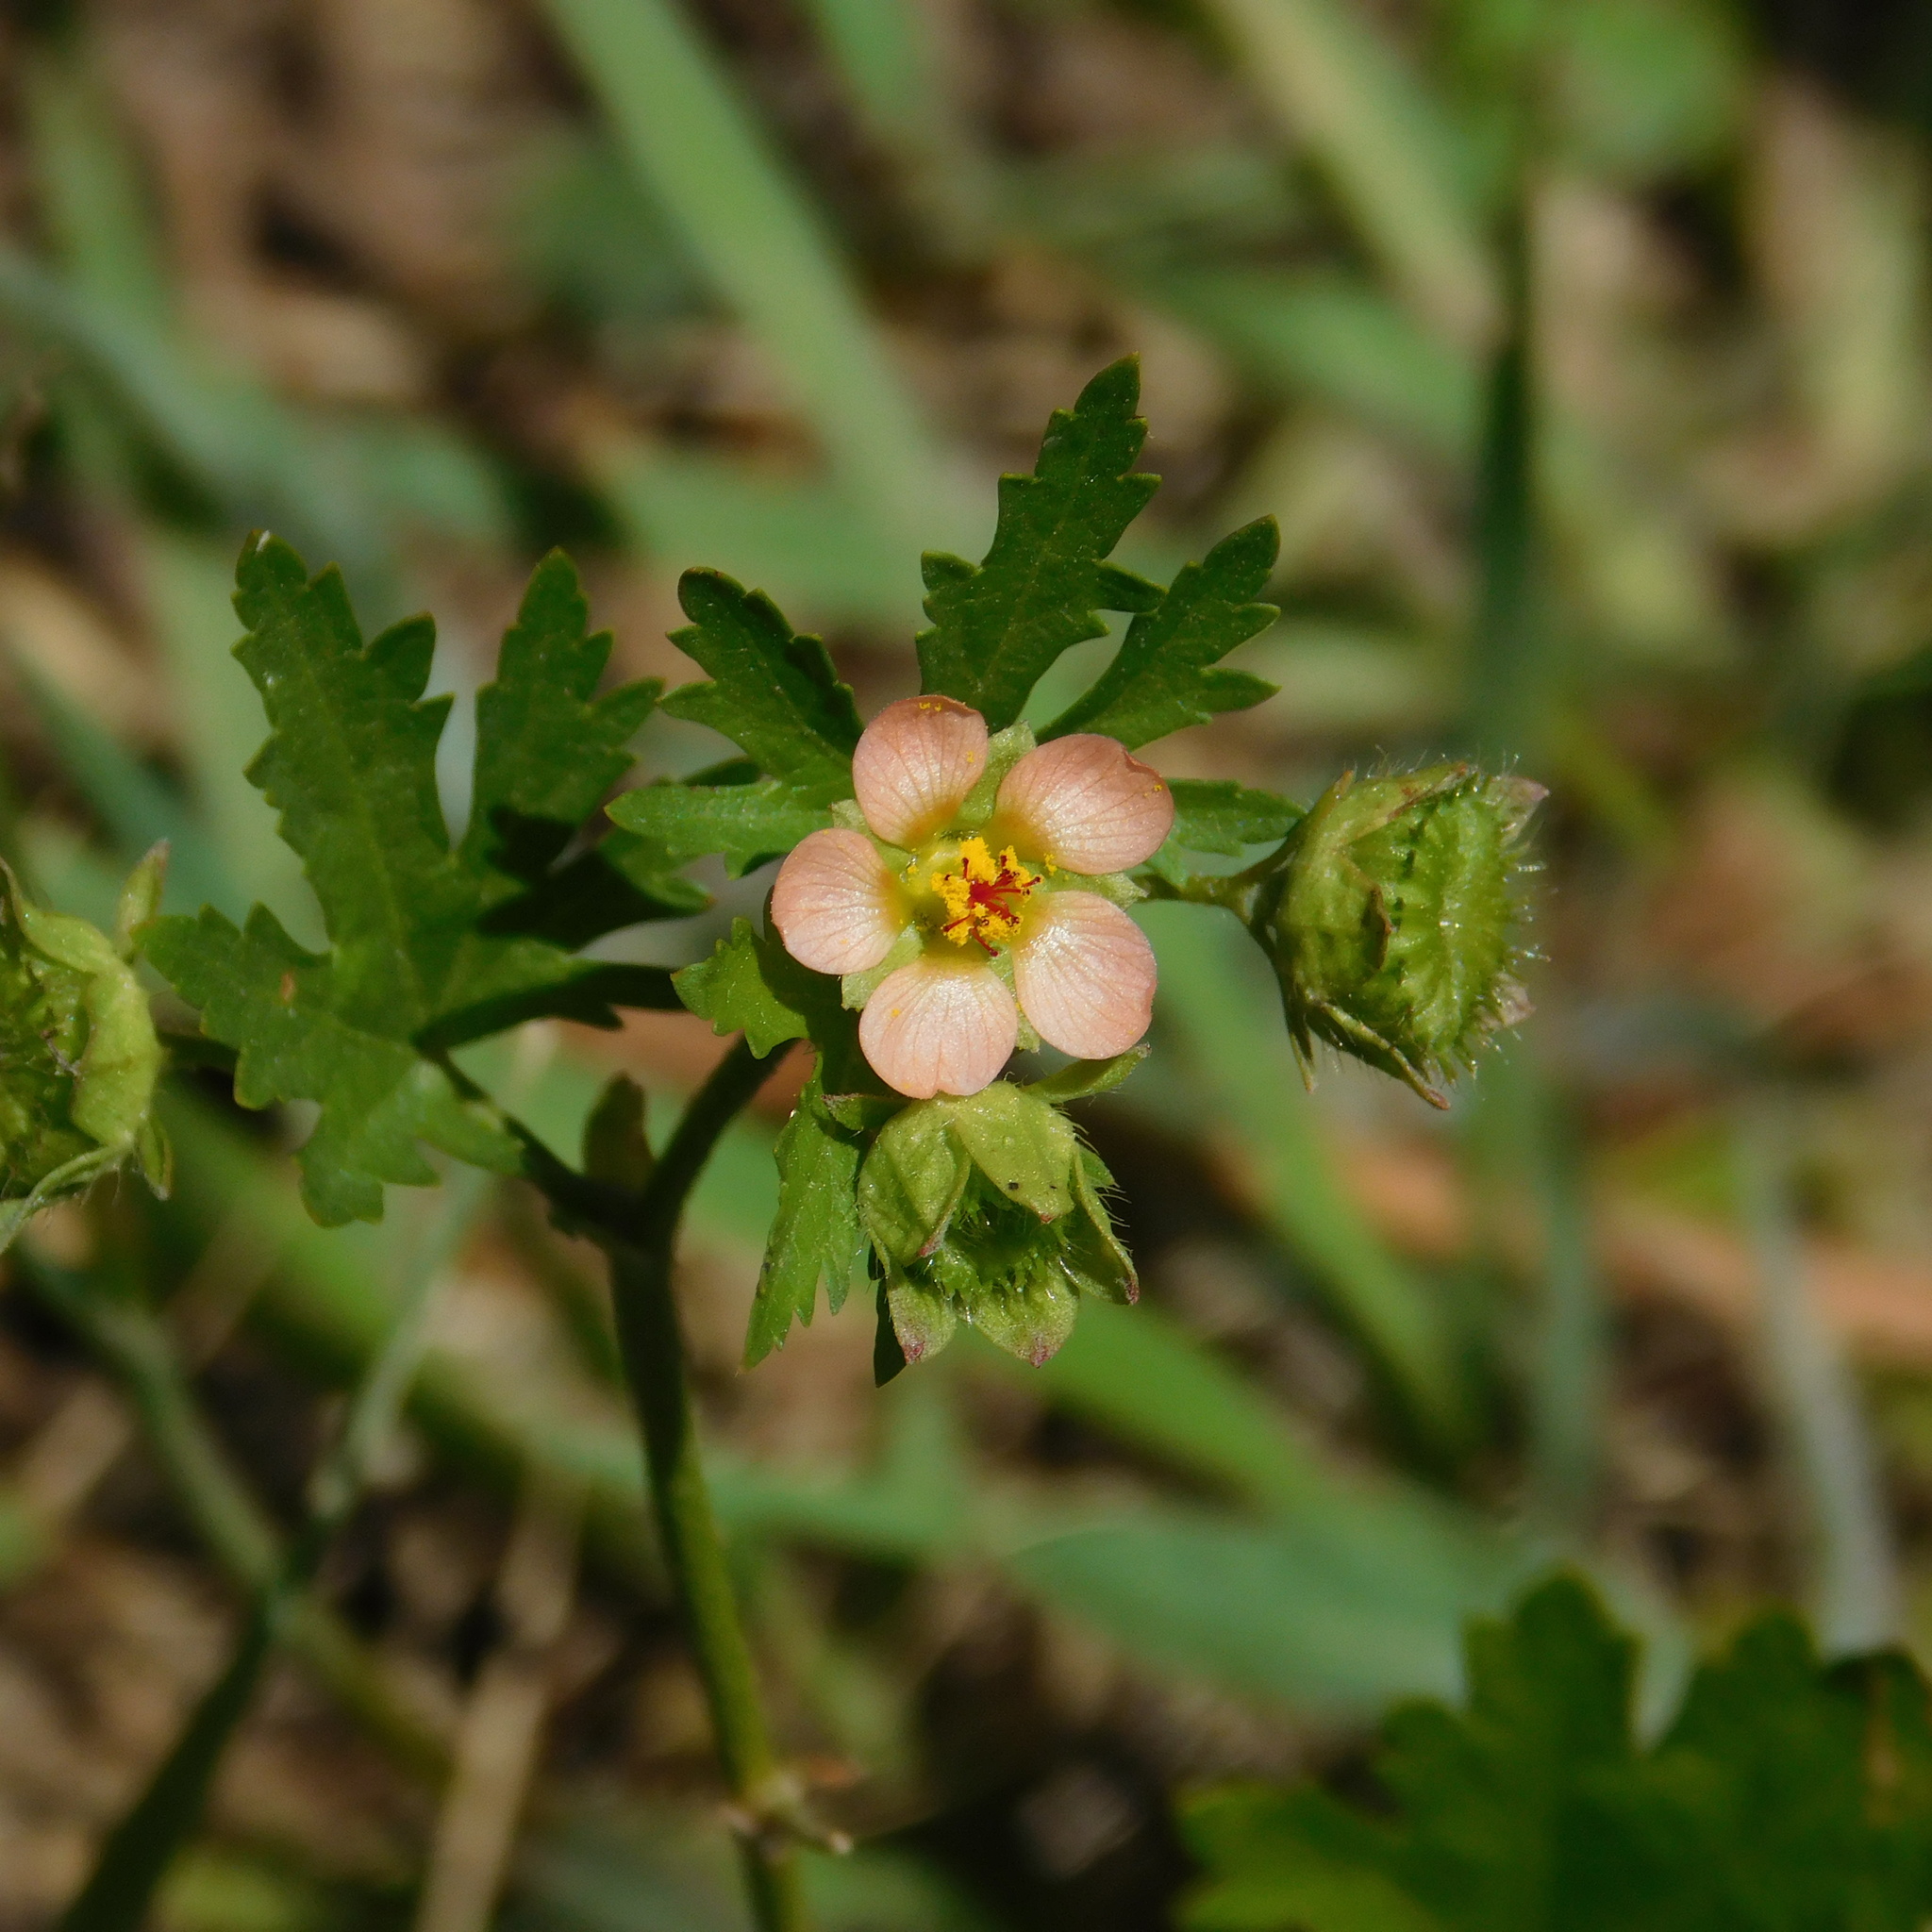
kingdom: Plantae
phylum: Tracheophyta
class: Magnoliopsida
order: Malvales
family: Malvaceae
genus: Modiola
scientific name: Modiola caroliniana
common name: Carolina bristlemallow
